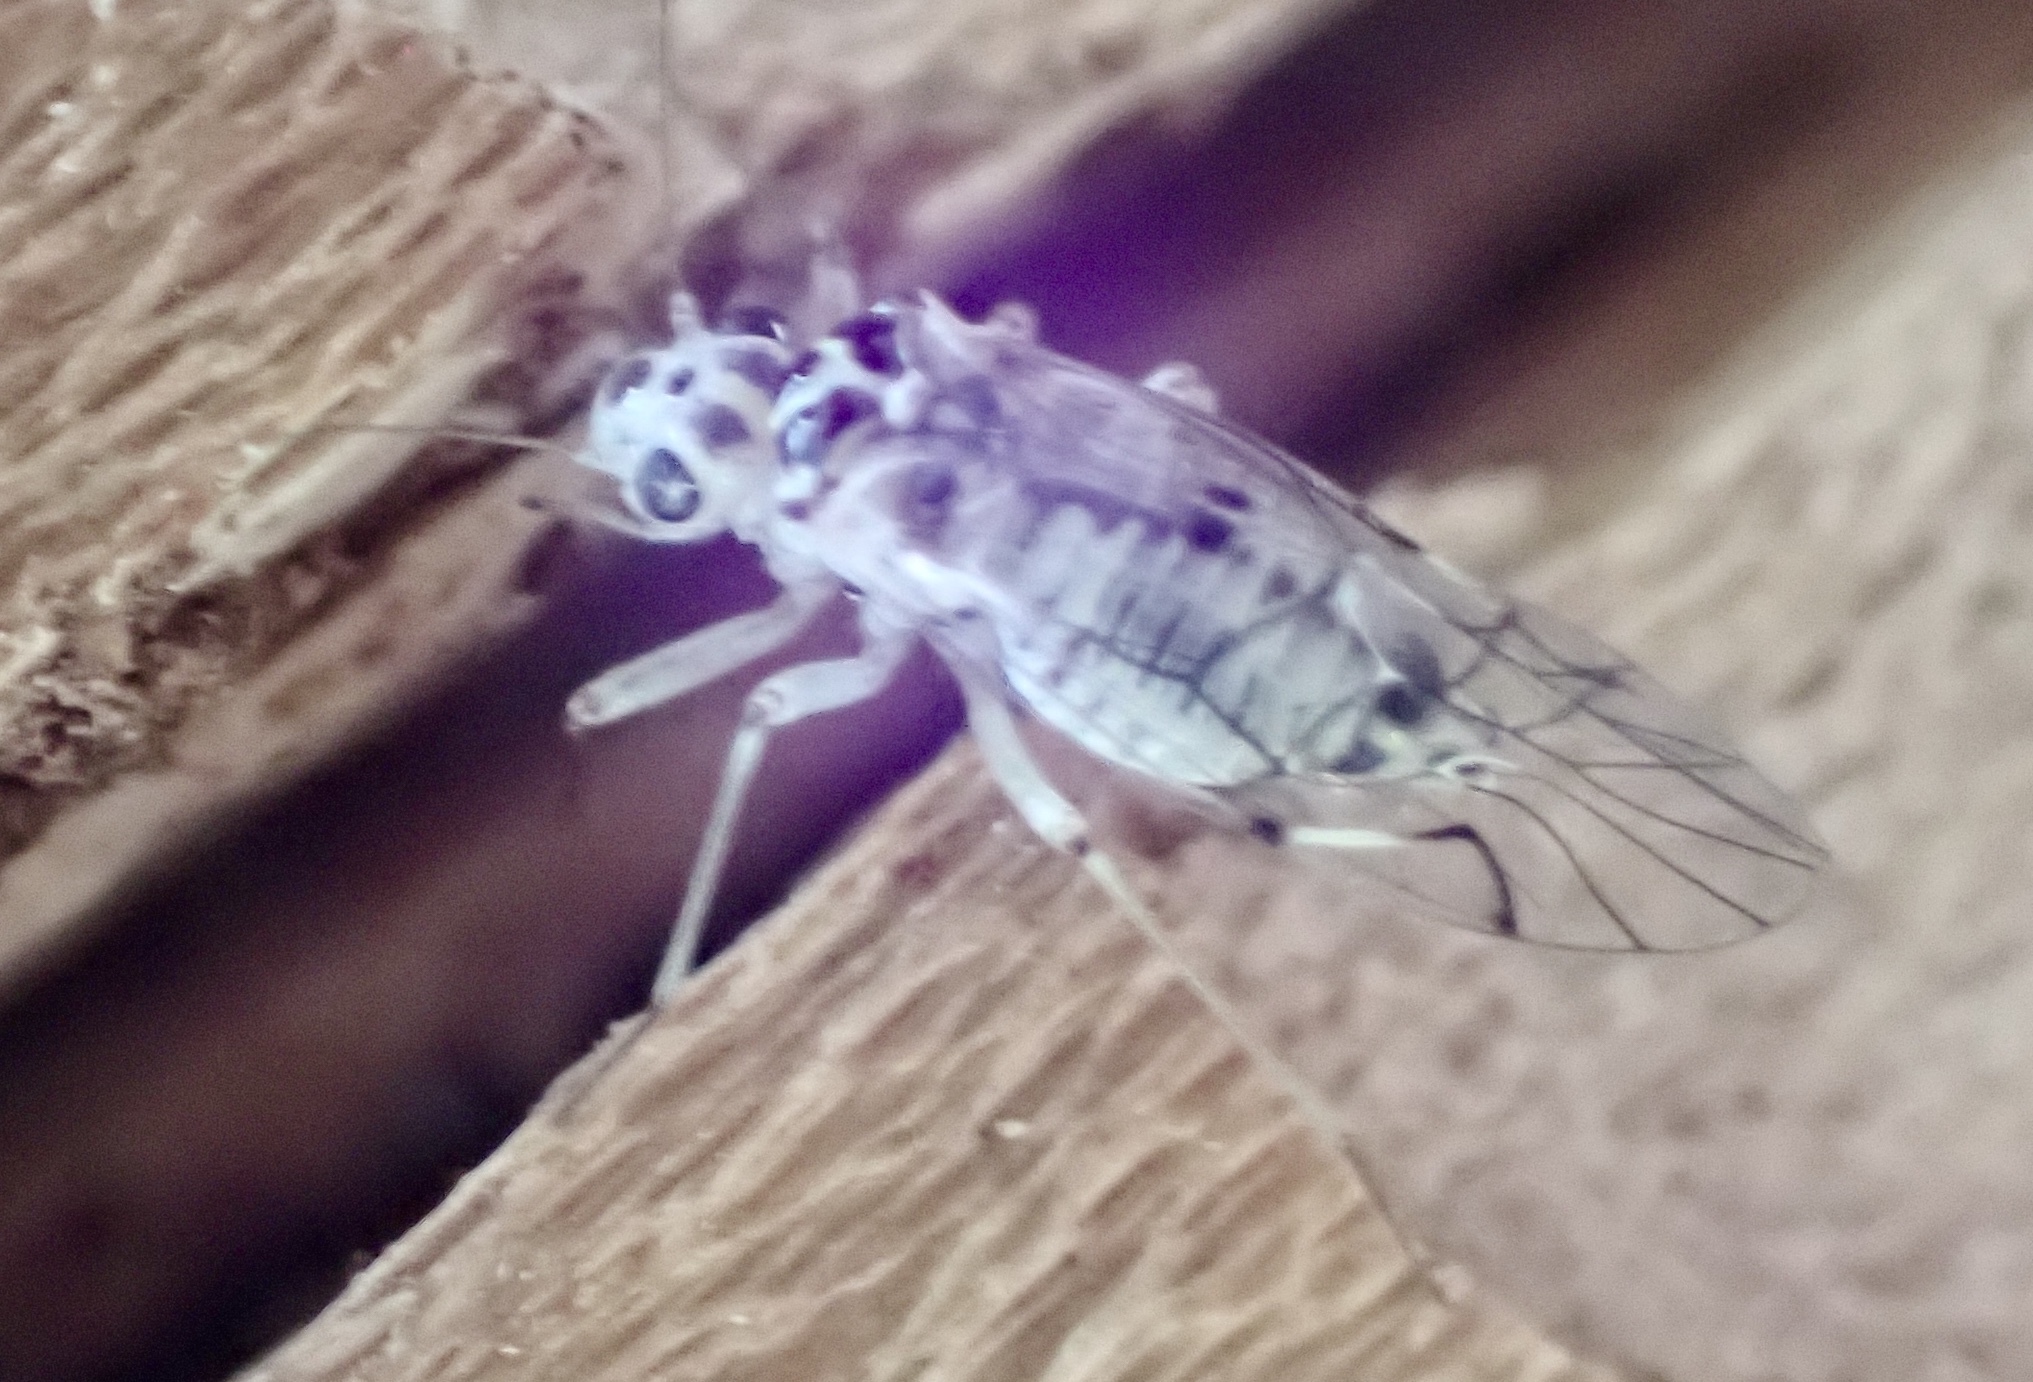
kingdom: Animalia
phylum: Arthropoda
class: Insecta
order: Psocodea
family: Psocidae
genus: Metylophorus
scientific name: Metylophorus purus
